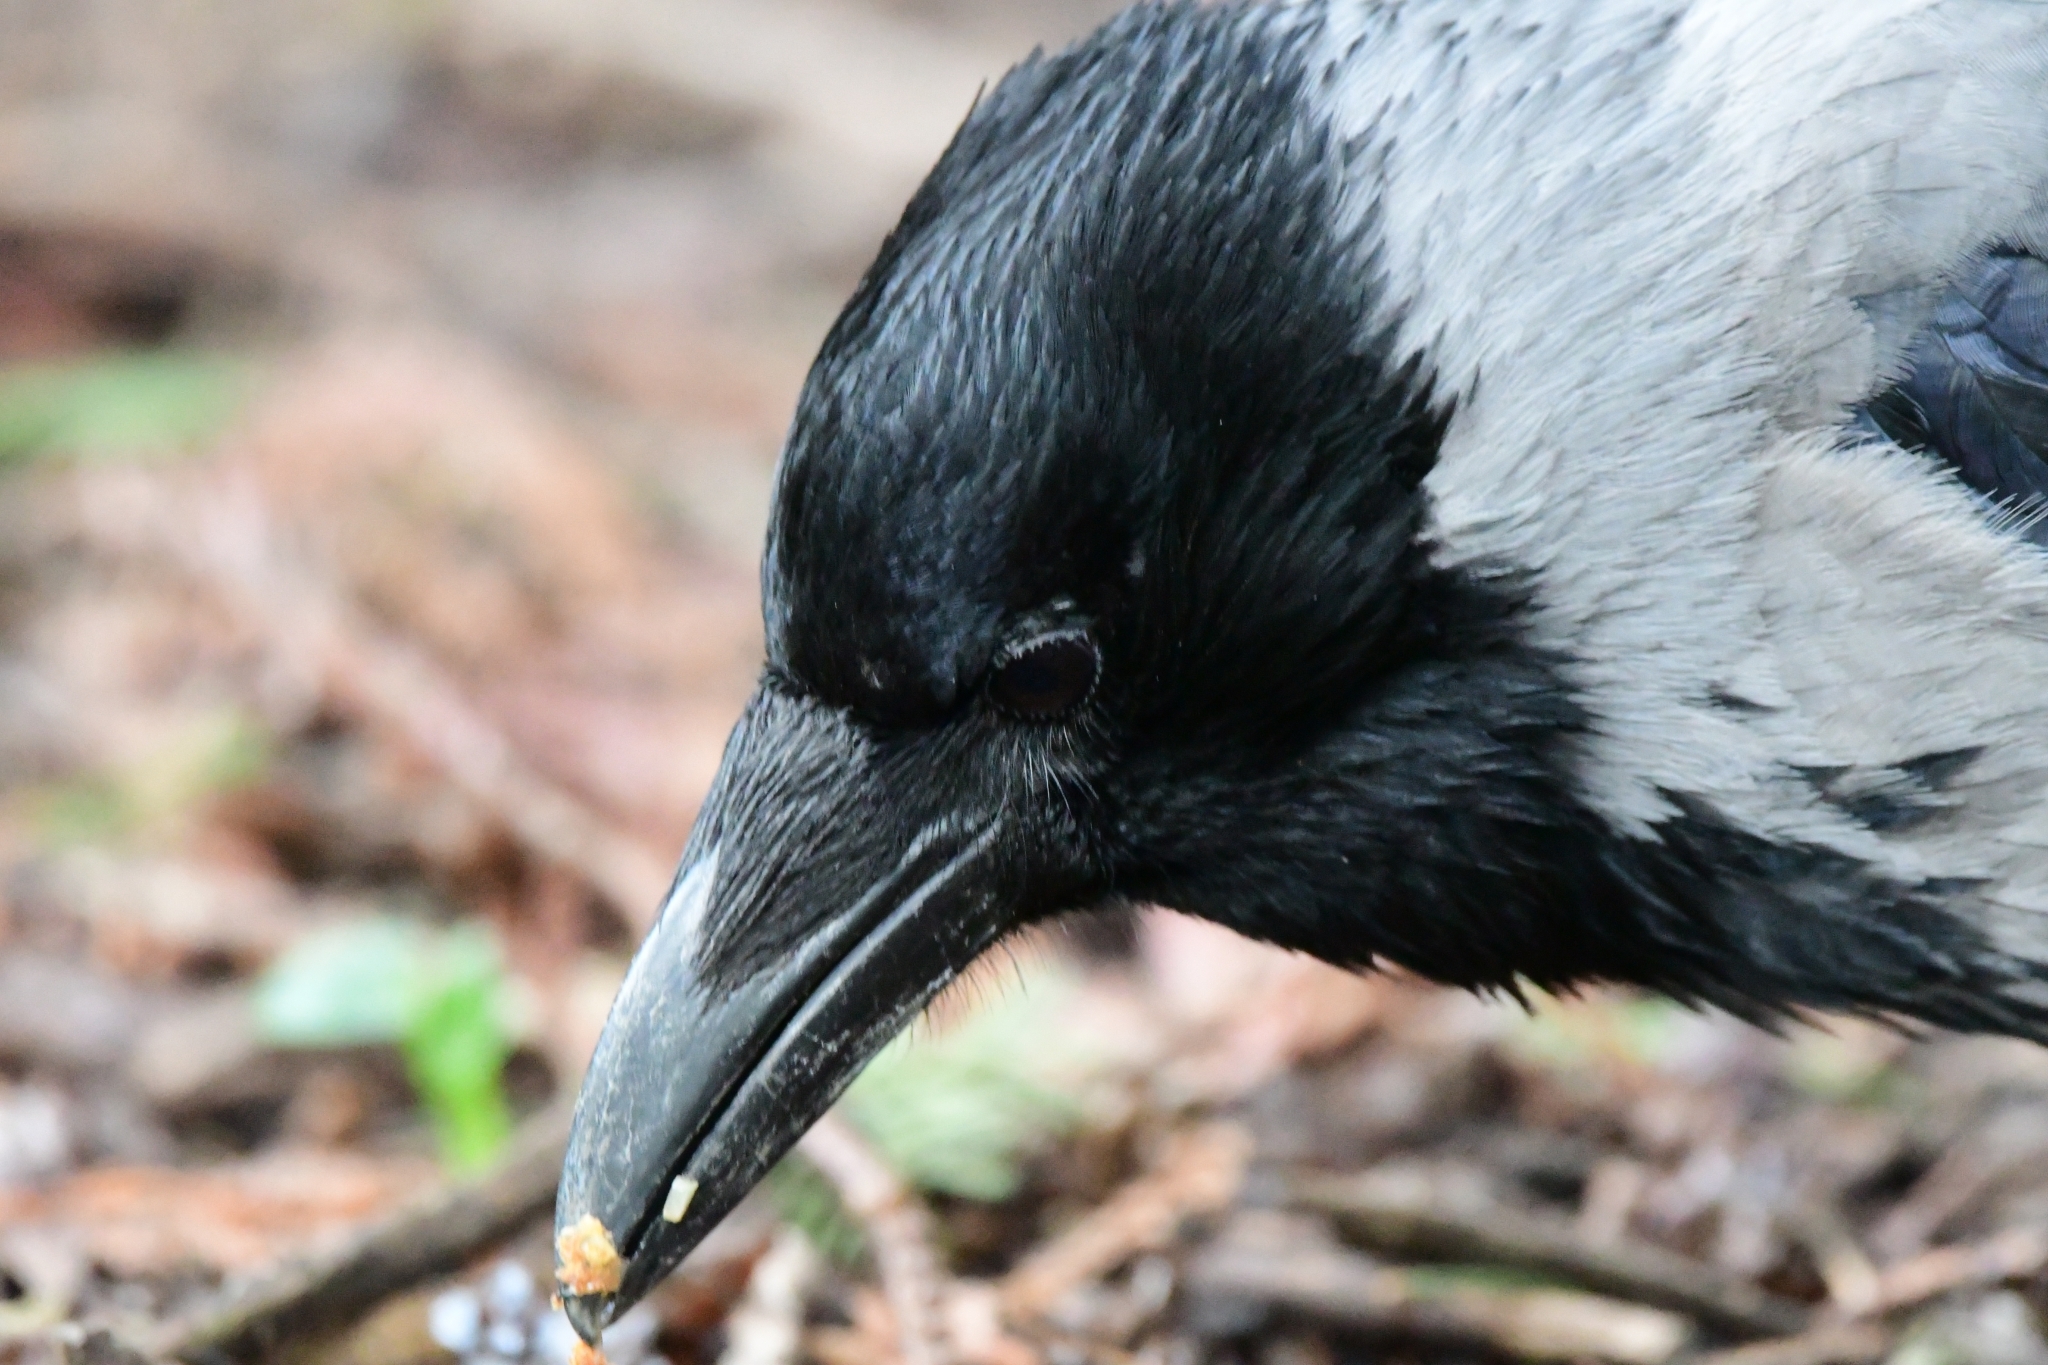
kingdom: Animalia
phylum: Chordata
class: Aves
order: Passeriformes
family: Corvidae
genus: Corvus
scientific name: Corvus cornix
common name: Hooded crow
